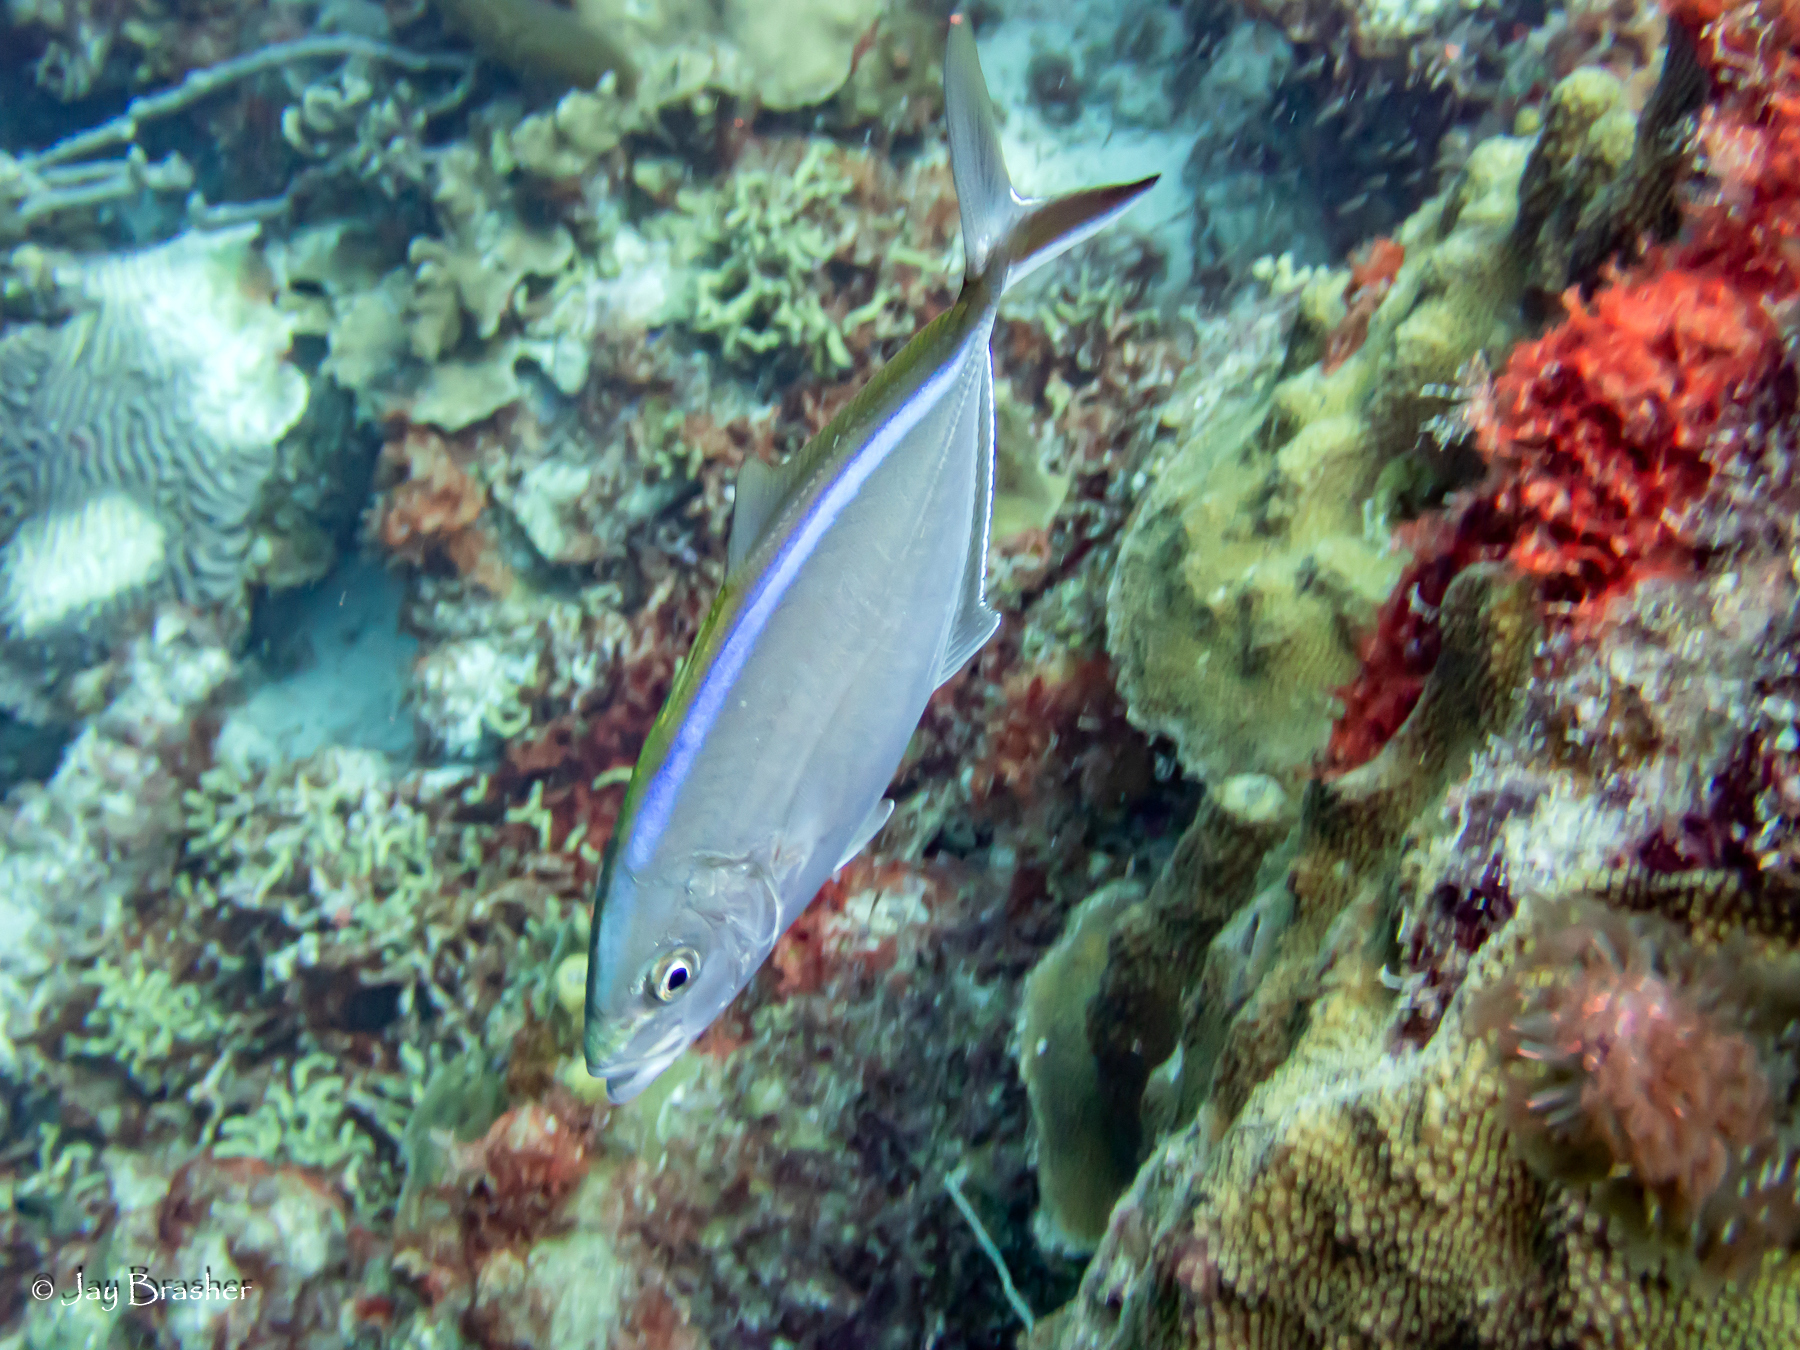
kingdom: Animalia
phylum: Chordata
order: Perciformes
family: Carangidae
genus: Caranx
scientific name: Caranx ruber
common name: Bar jack
